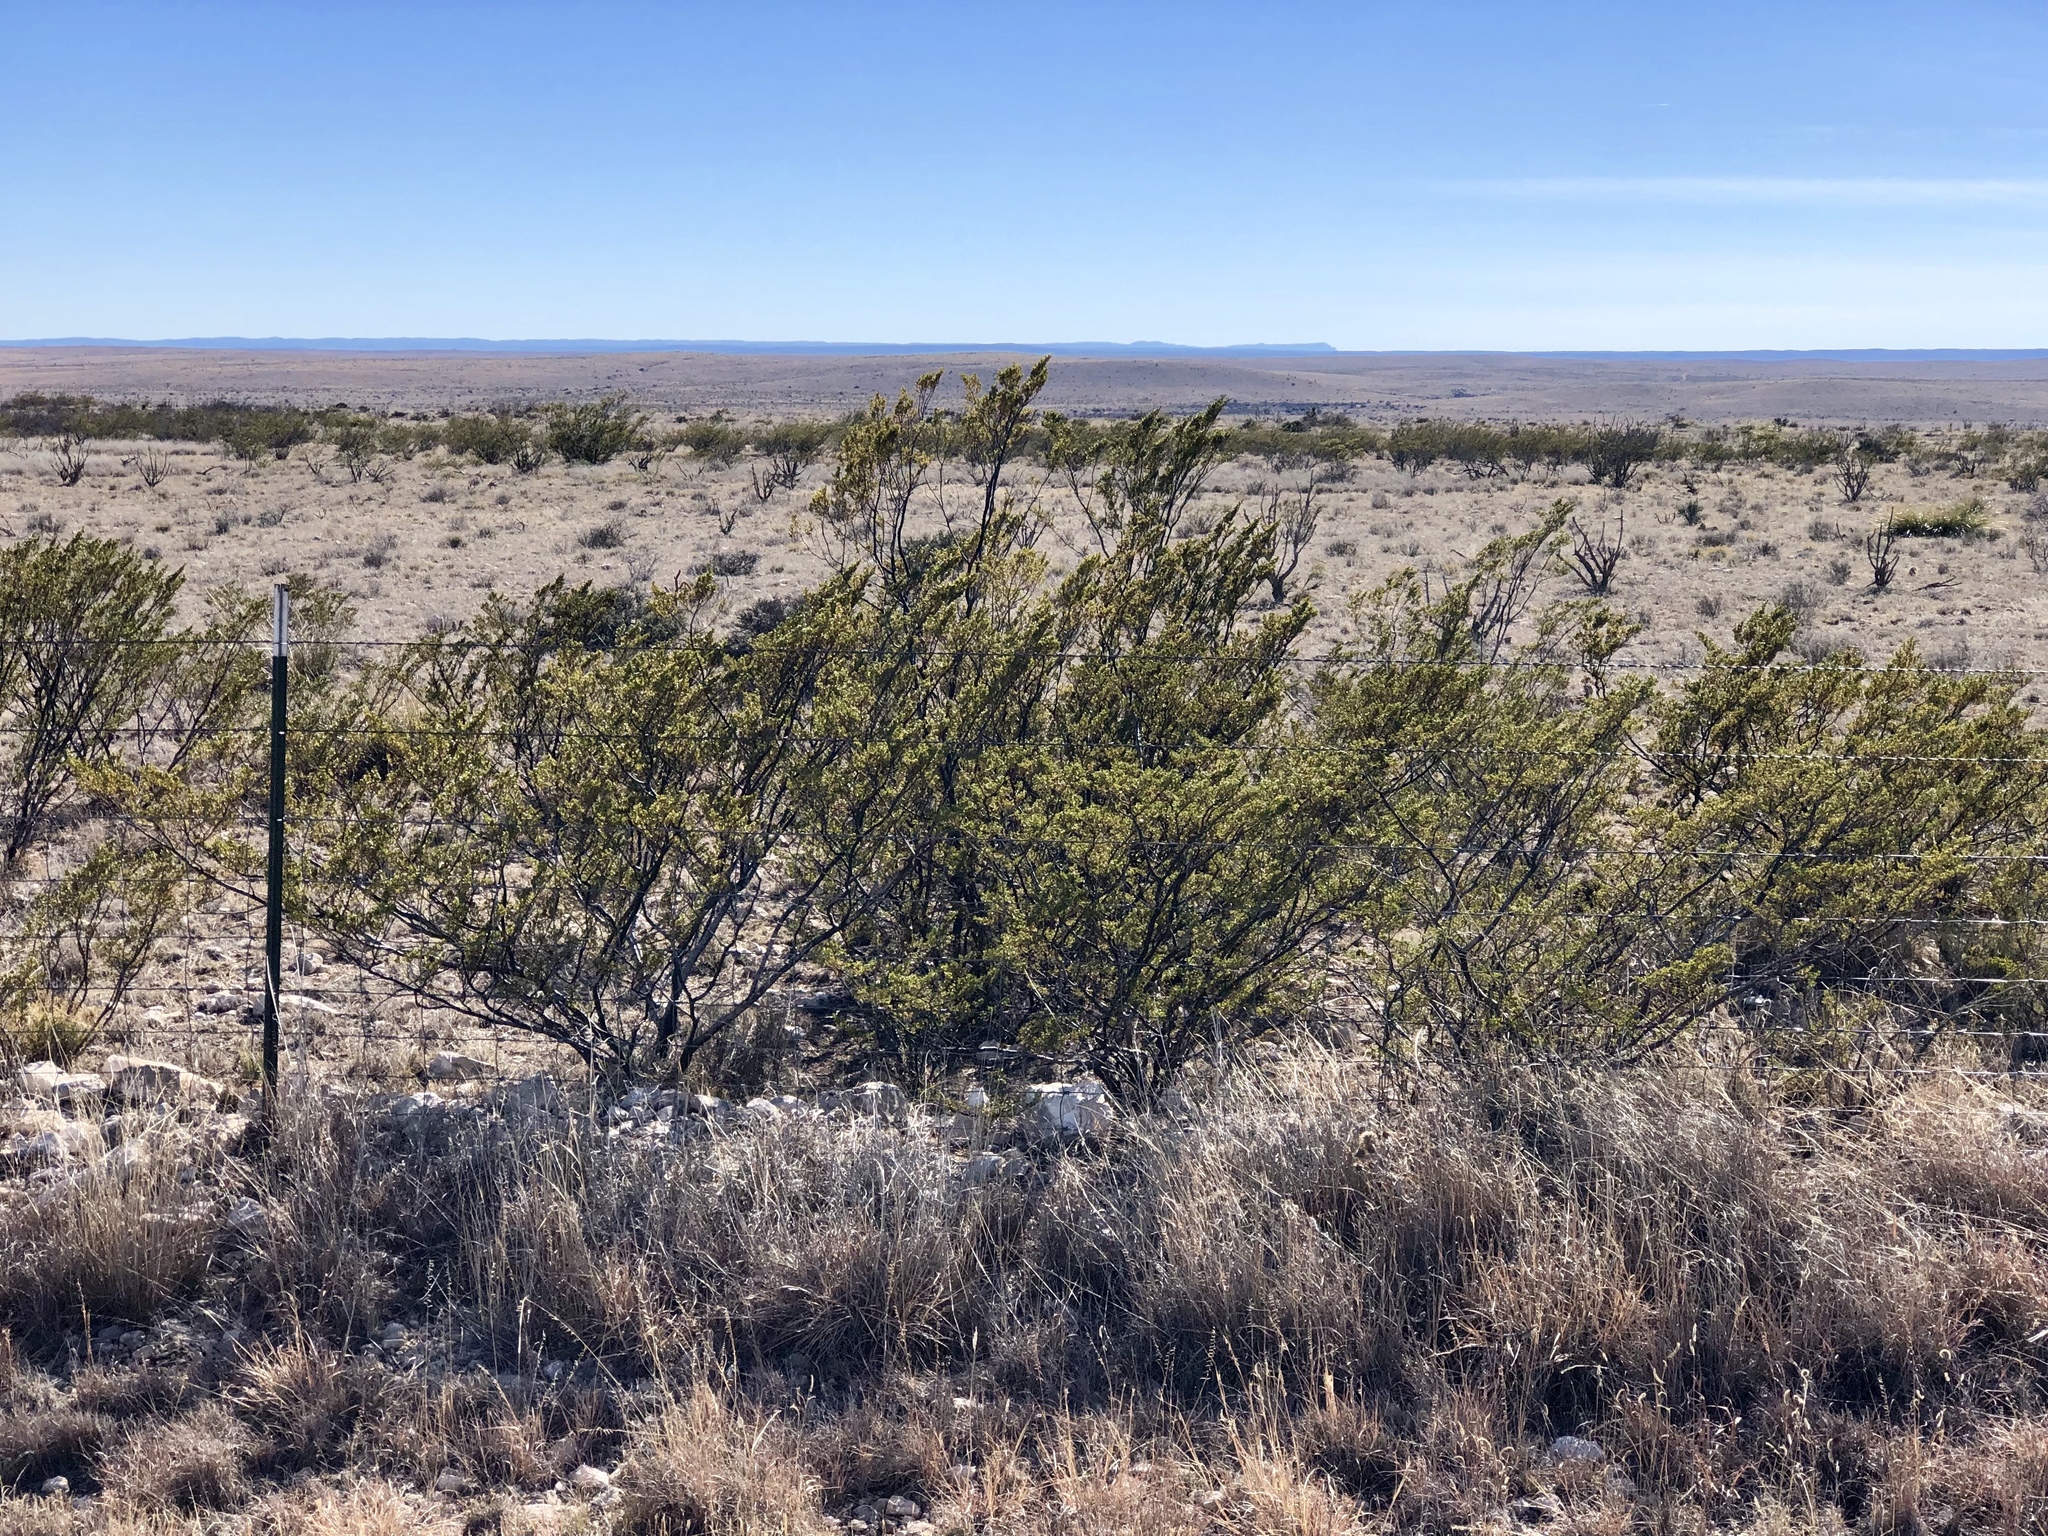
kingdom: Plantae
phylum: Tracheophyta
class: Magnoliopsida
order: Zygophyllales
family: Zygophyllaceae
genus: Larrea
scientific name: Larrea tridentata
